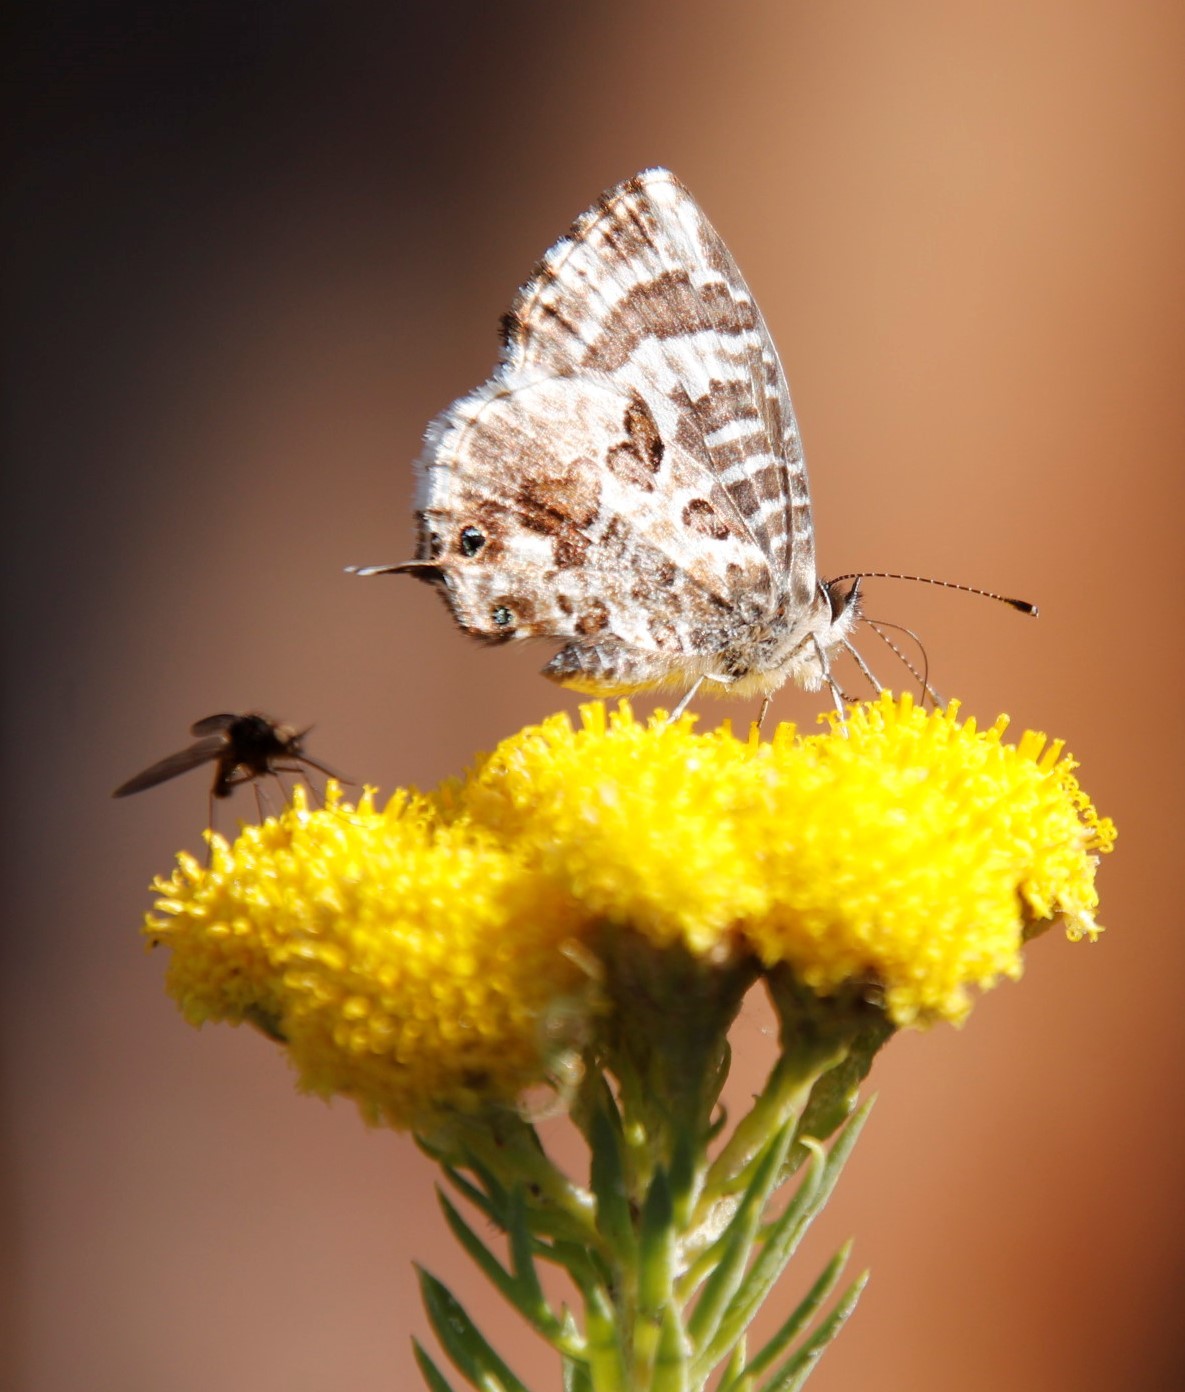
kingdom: Animalia
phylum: Arthropoda
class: Insecta
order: Lepidoptera
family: Lycaenidae
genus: Cacyreus
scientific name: Cacyreus lingeus
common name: Bush bronze
